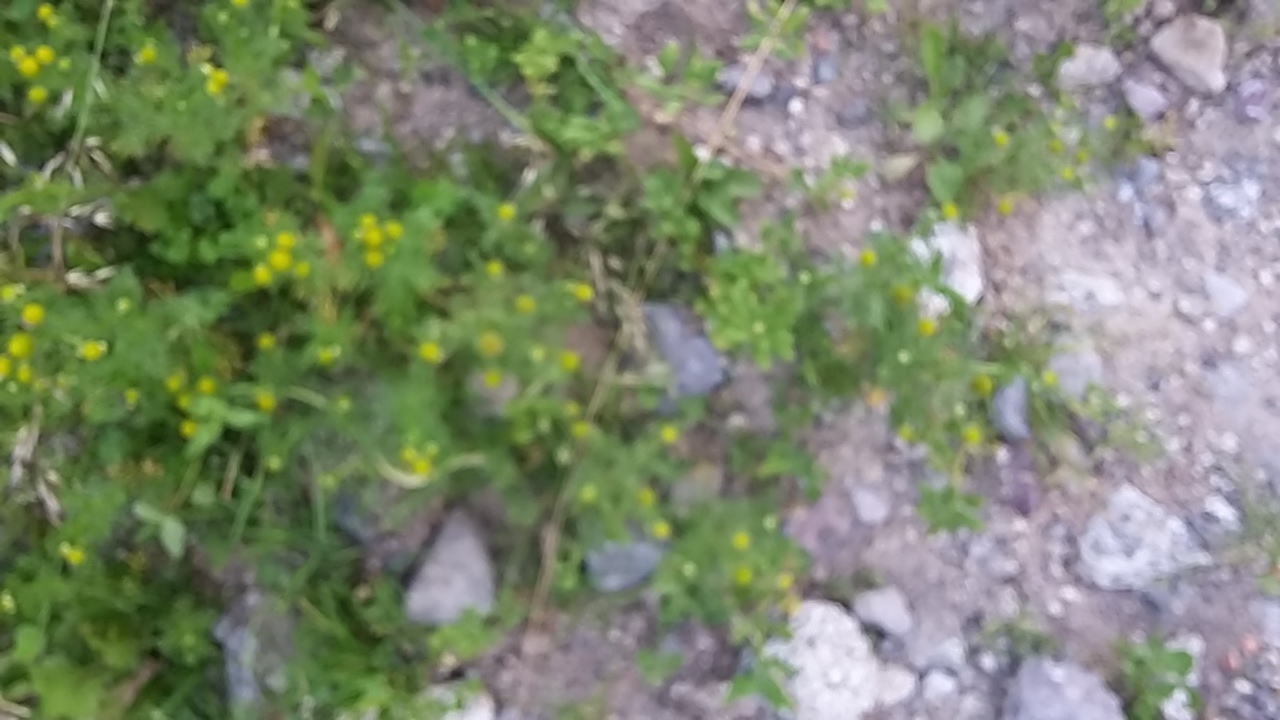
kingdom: Plantae
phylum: Tracheophyta
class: Magnoliopsida
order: Asterales
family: Asteraceae
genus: Matricaria
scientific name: Matricaria discoidea
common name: Disc mayweed
